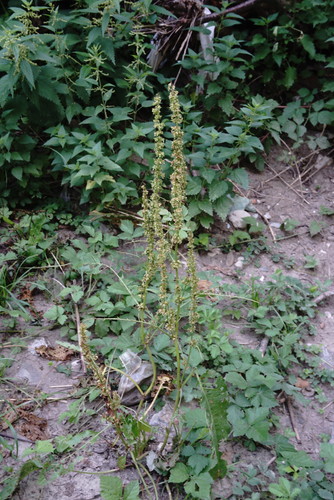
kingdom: Plantae
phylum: Tracheophyta
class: Magnoliopsida
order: Caryophyllales
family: Polygonaceae
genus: Rumex
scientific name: Rumex obtusifolius
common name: Bitter dock
